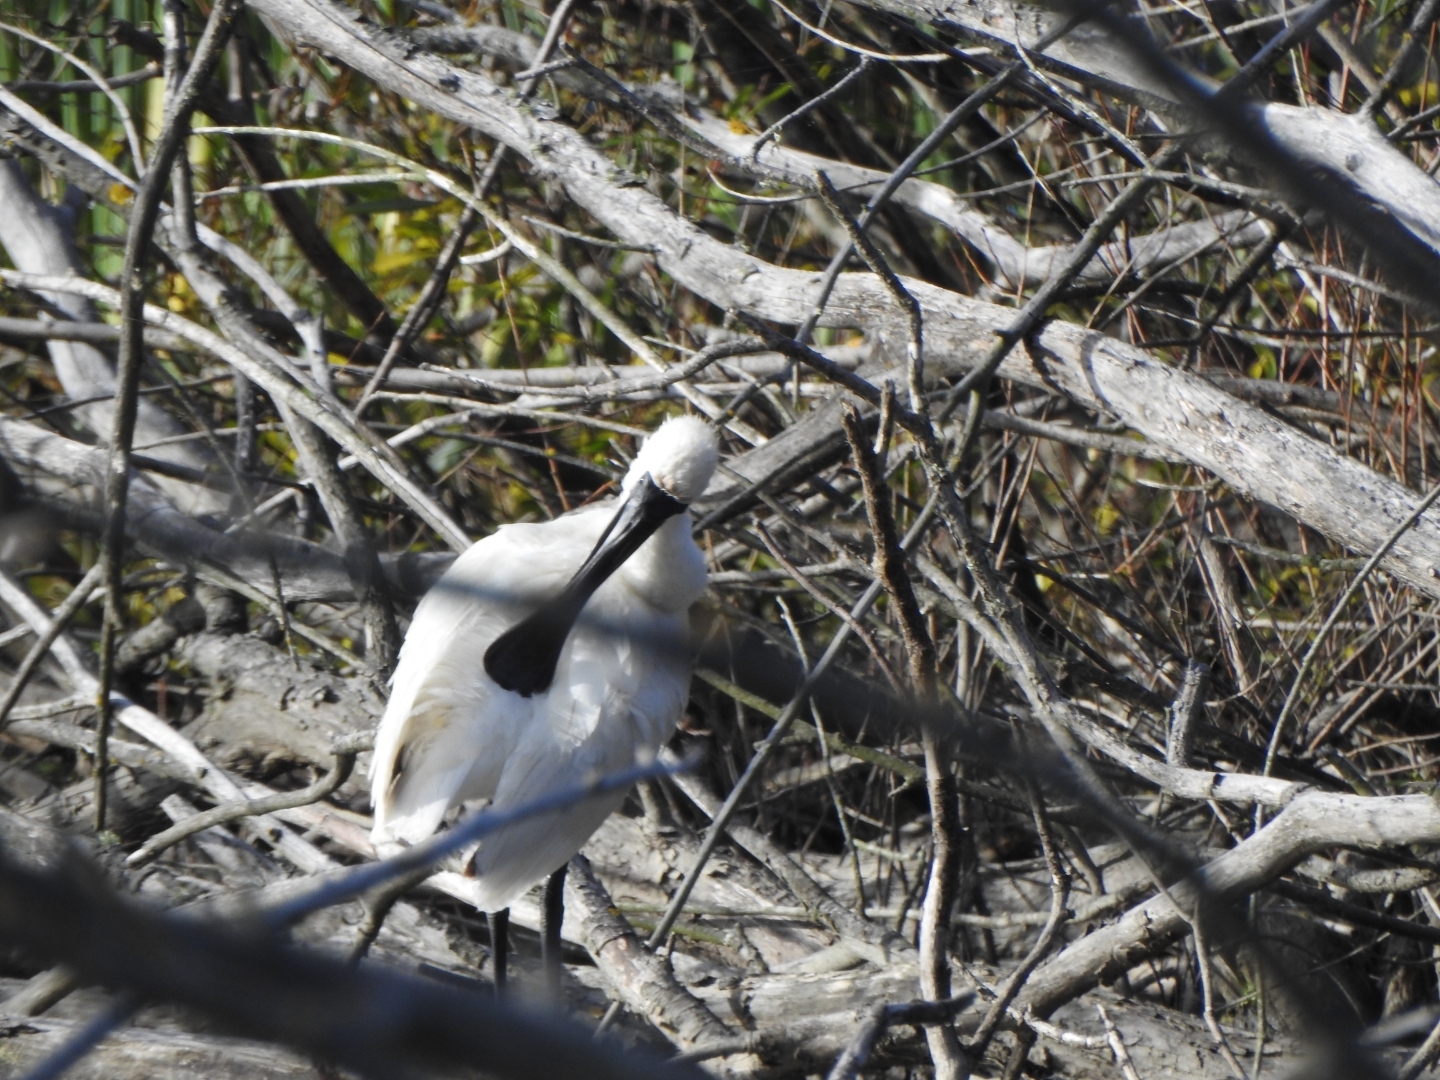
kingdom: Animalia
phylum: Chordata
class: Aves
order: Pelecaniformes
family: Threskiornithidae
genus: Platalea
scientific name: Platalea regia
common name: Royal spoonbill
